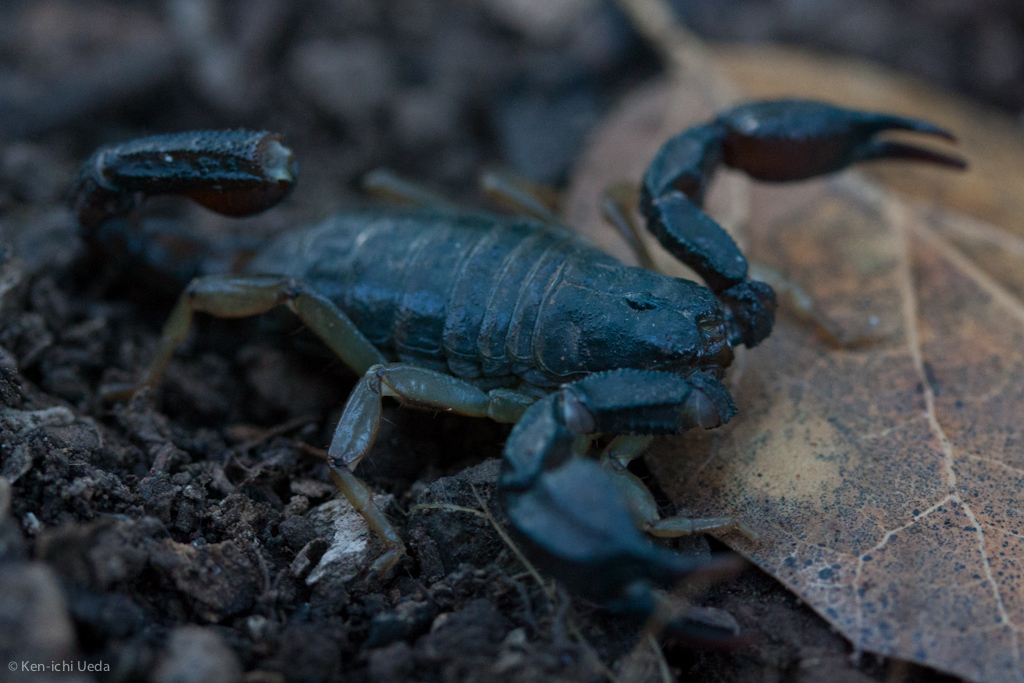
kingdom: Animalia
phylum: Arthropoda
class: Arachnida
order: Scorpiones
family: Chactidae
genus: Uroctonus
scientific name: Uroctonus mordax
